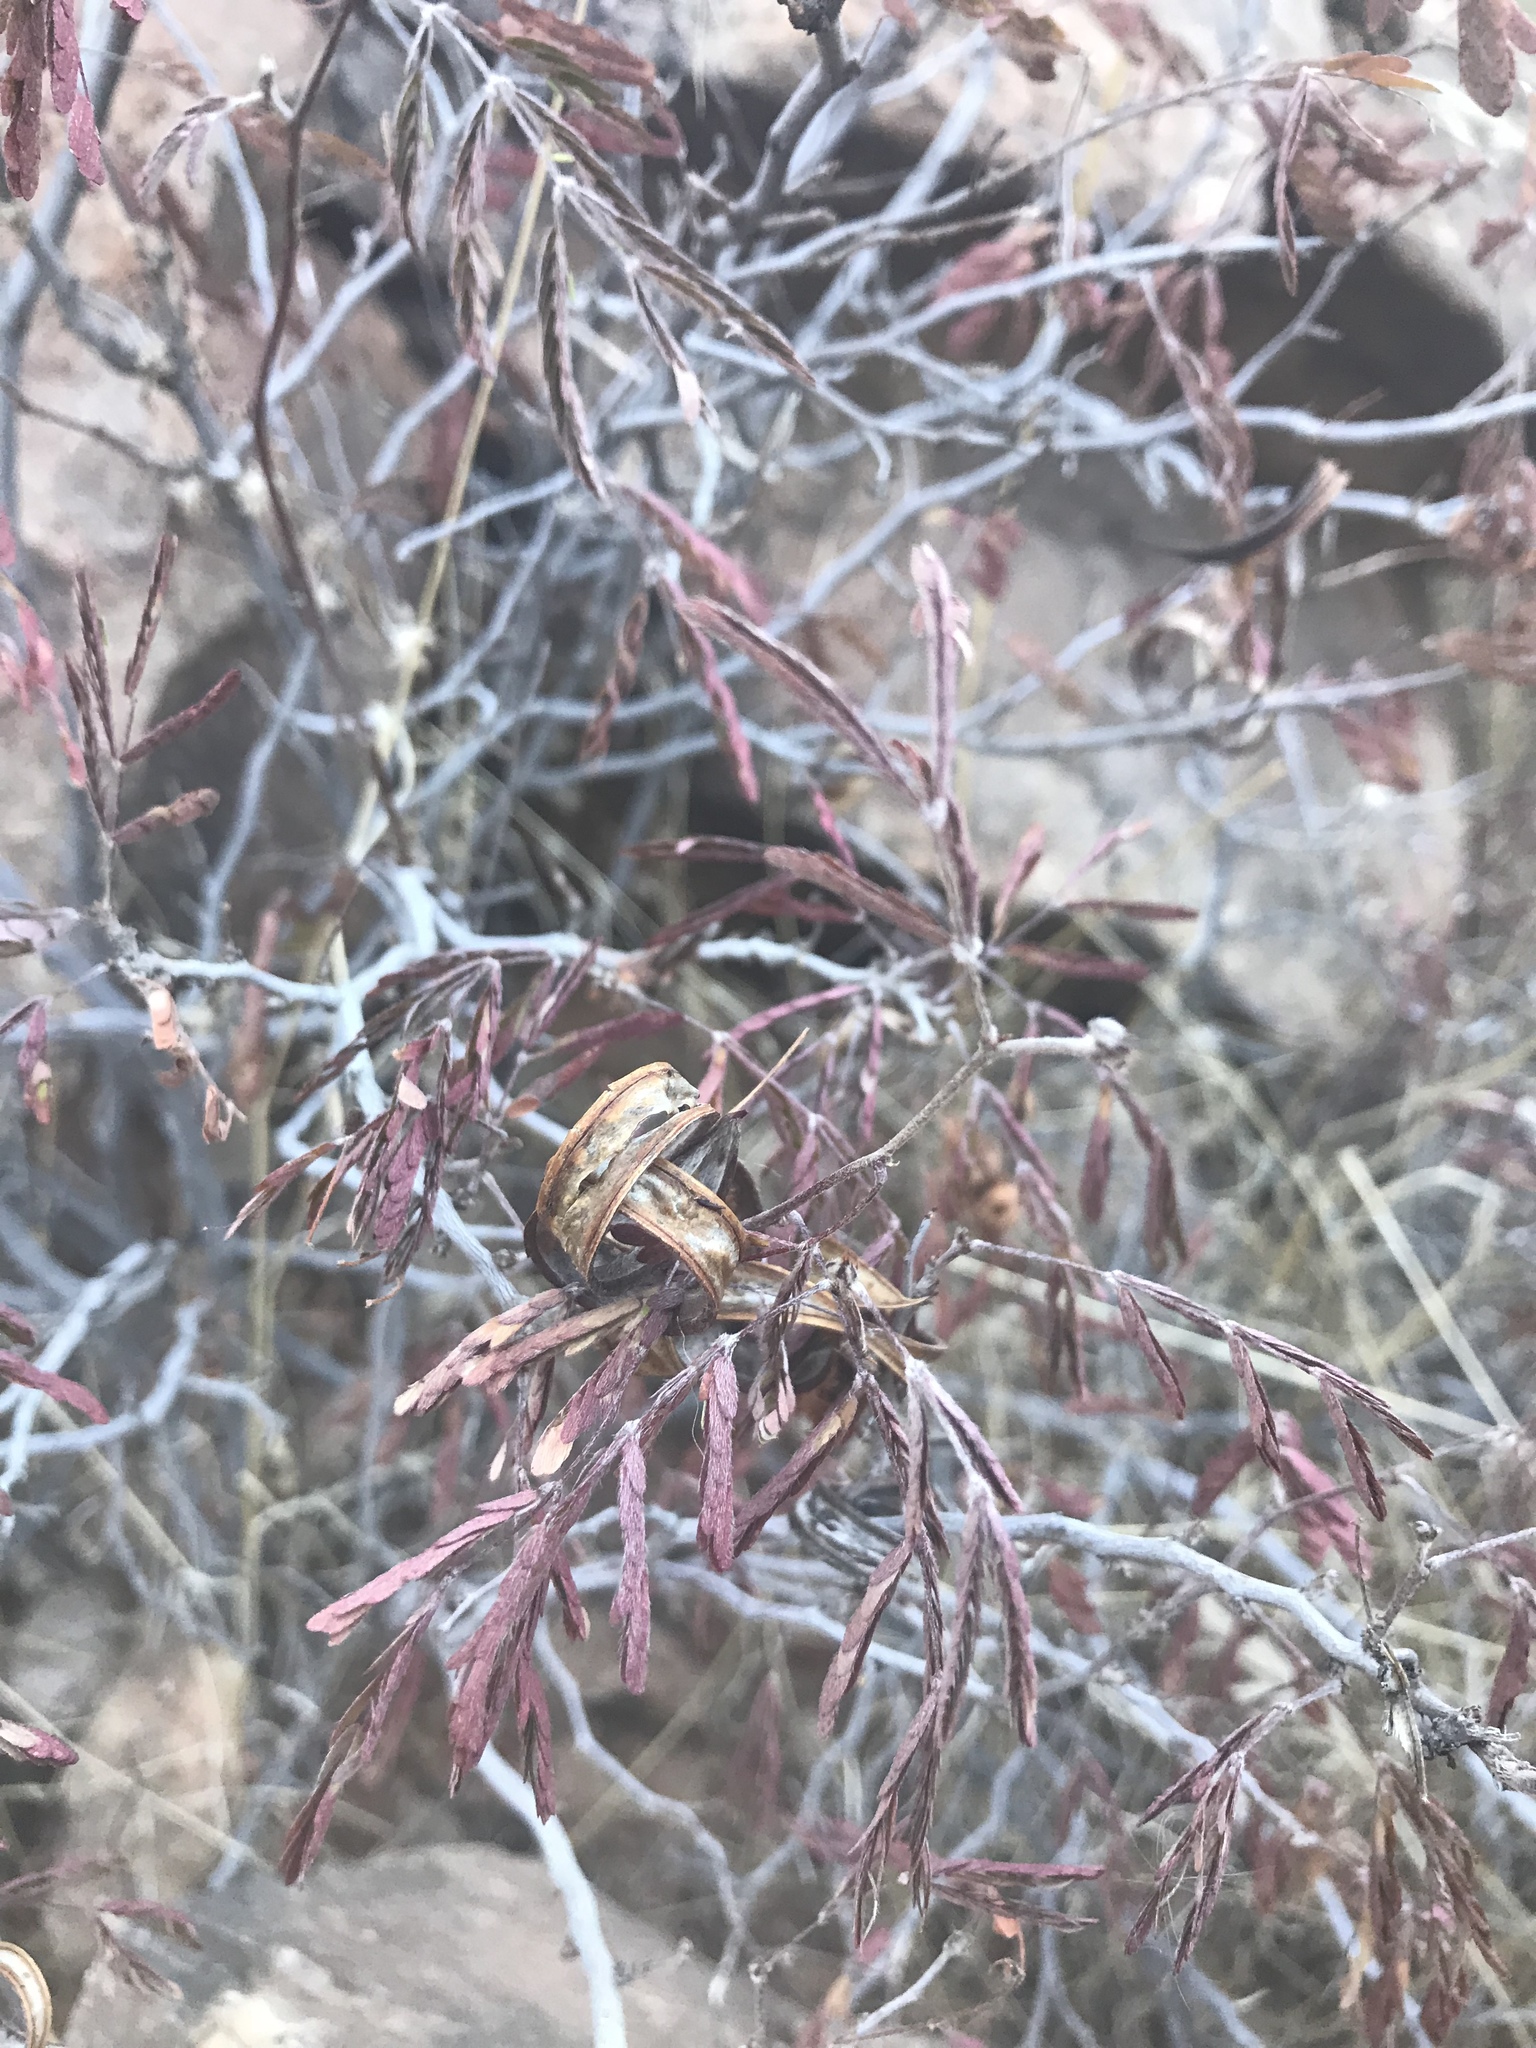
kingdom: Plantae
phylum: Tracheophyta
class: Magnoliopsida
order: Fabales
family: Fabaceae
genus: Calliandra
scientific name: Calliandra eriophylla
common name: Fairy-duster
